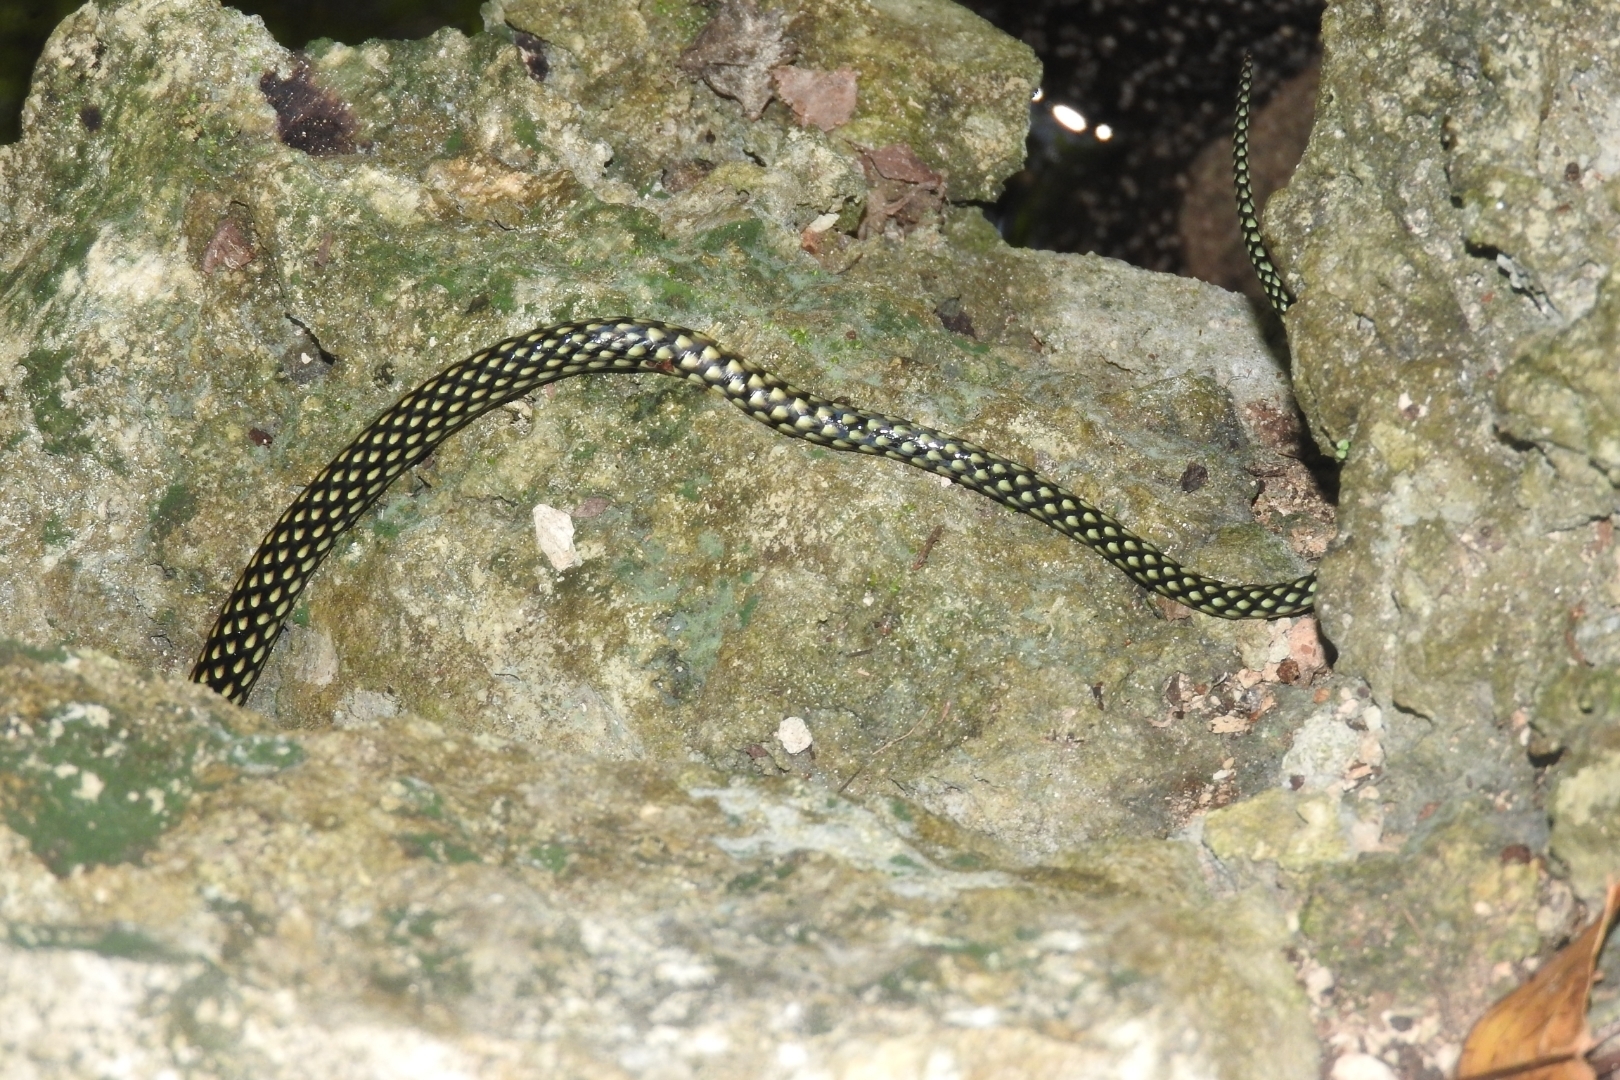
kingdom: Animalia
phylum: Chordata
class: Squamata
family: Colubridae
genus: Drymobius
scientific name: Drymobius margaritiferus
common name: Central american speckled racer
